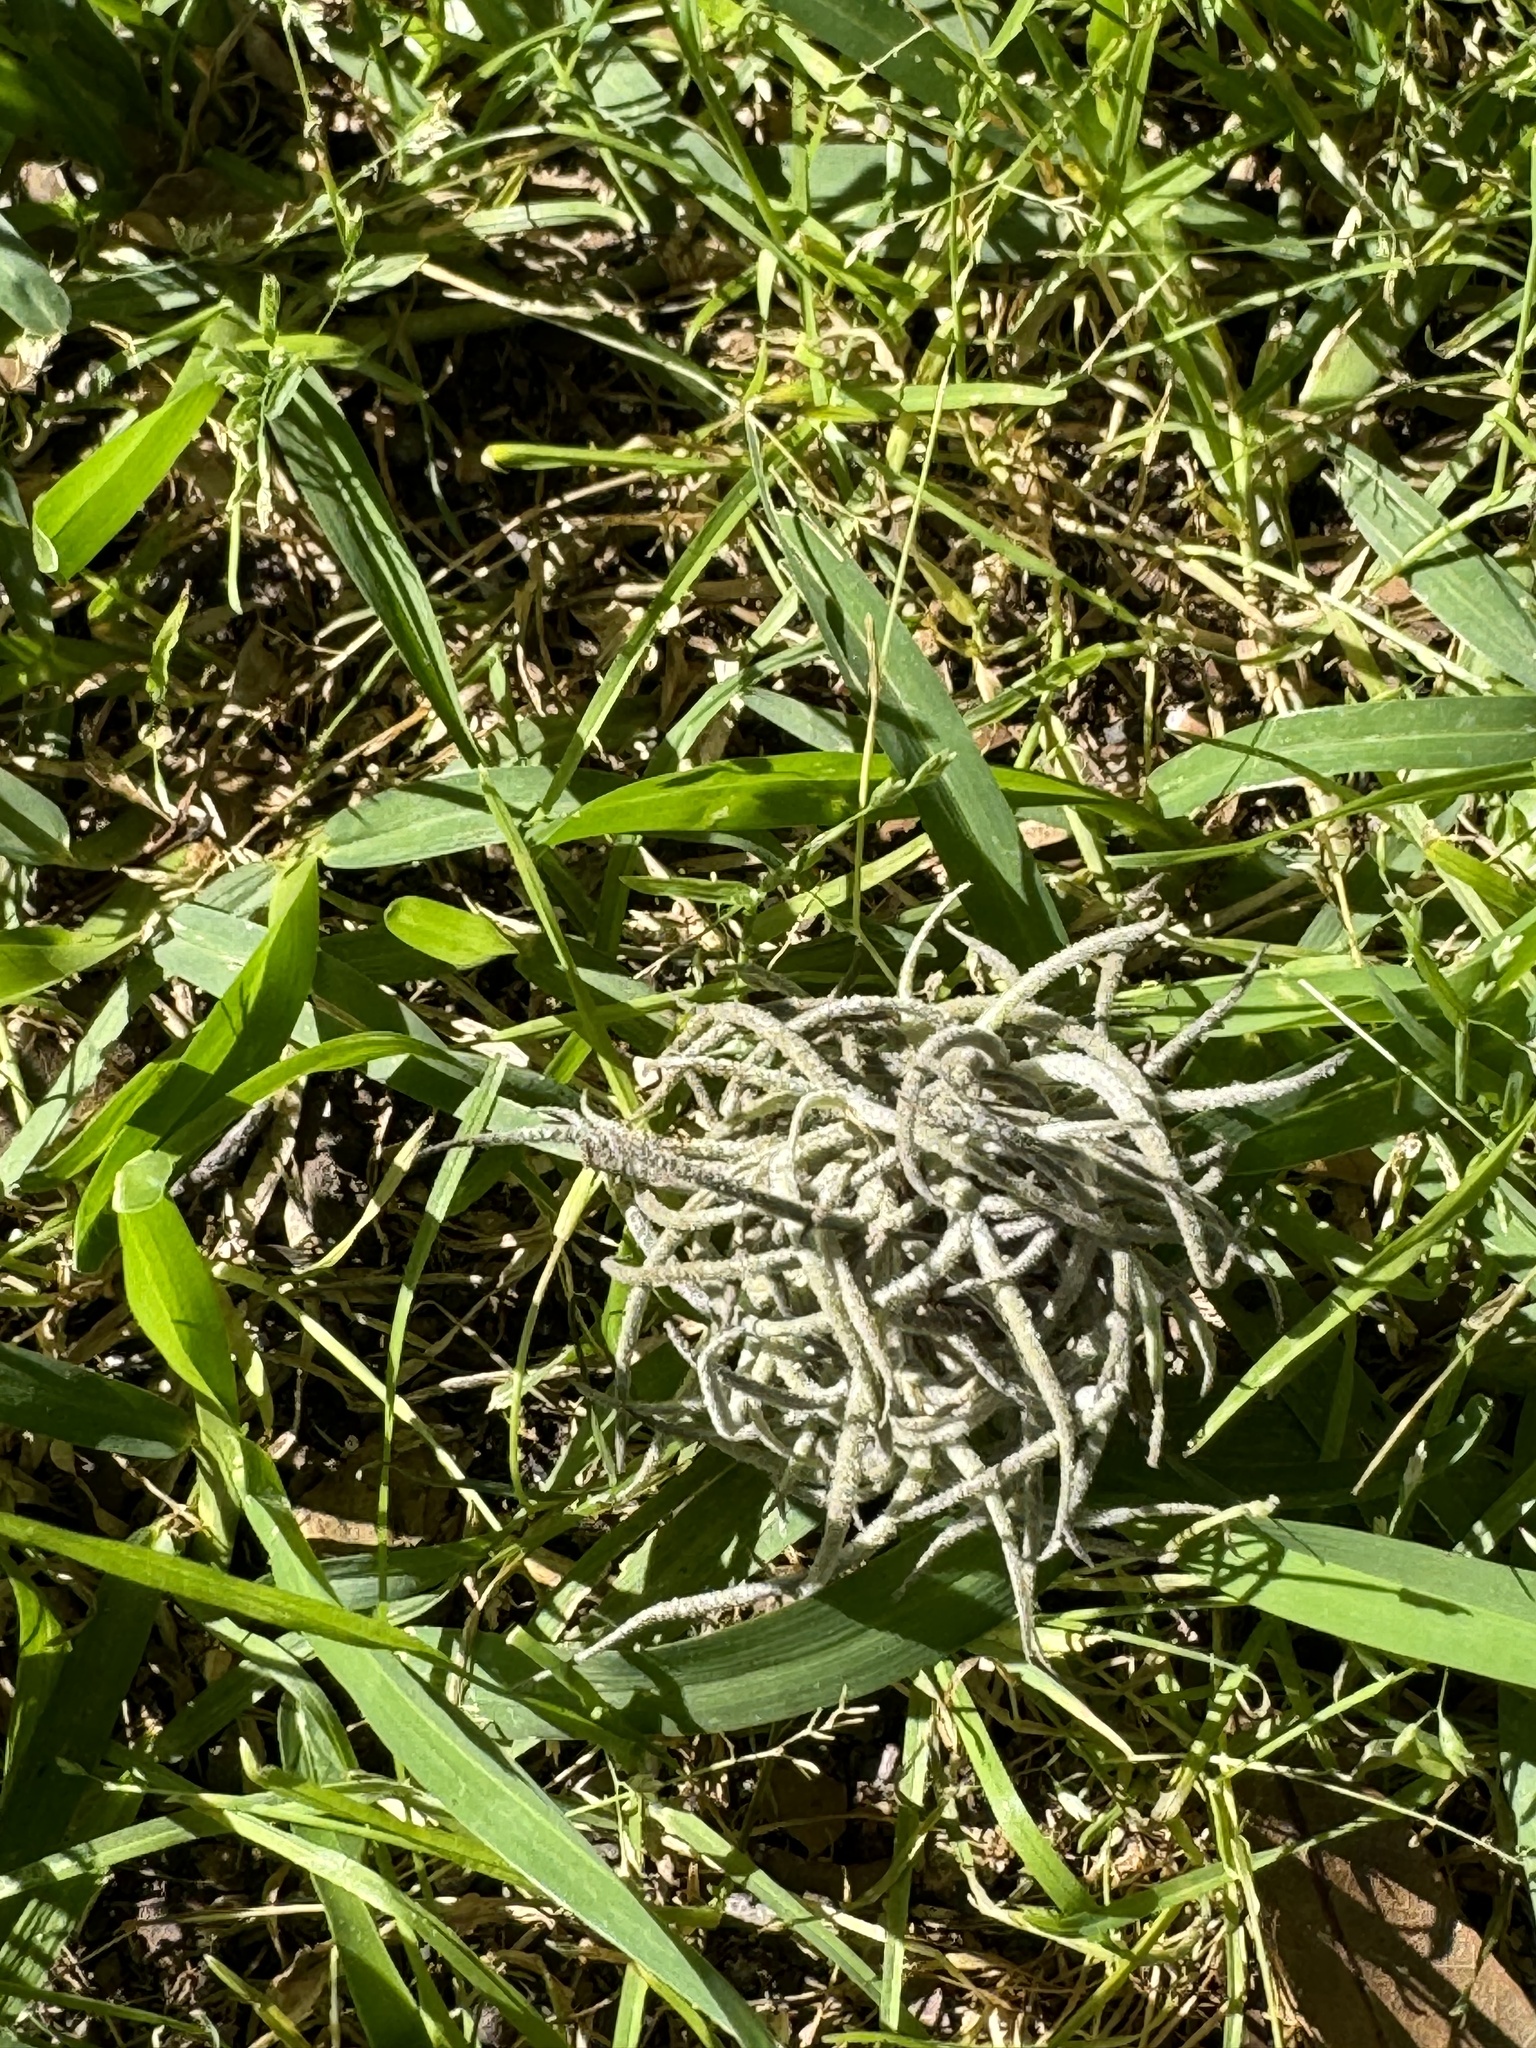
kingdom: Plantae
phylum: Tracheophyta
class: Liliopsida
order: Poales
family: Bromeliaceae
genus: Tillandsia
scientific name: Tillandsia recurvata
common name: Small ballmoss
